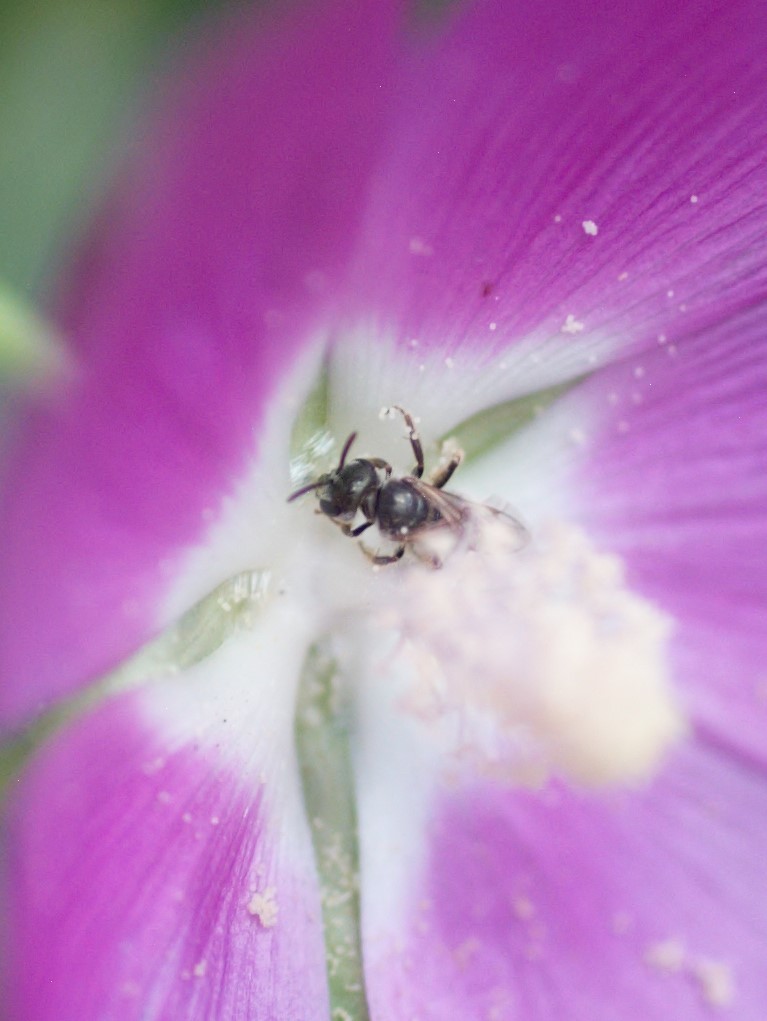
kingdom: Animalia
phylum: Arthropoda
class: Insecta
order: Hymenoptera
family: Halictidae
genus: Halictus
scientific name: Halictus tripartitus
